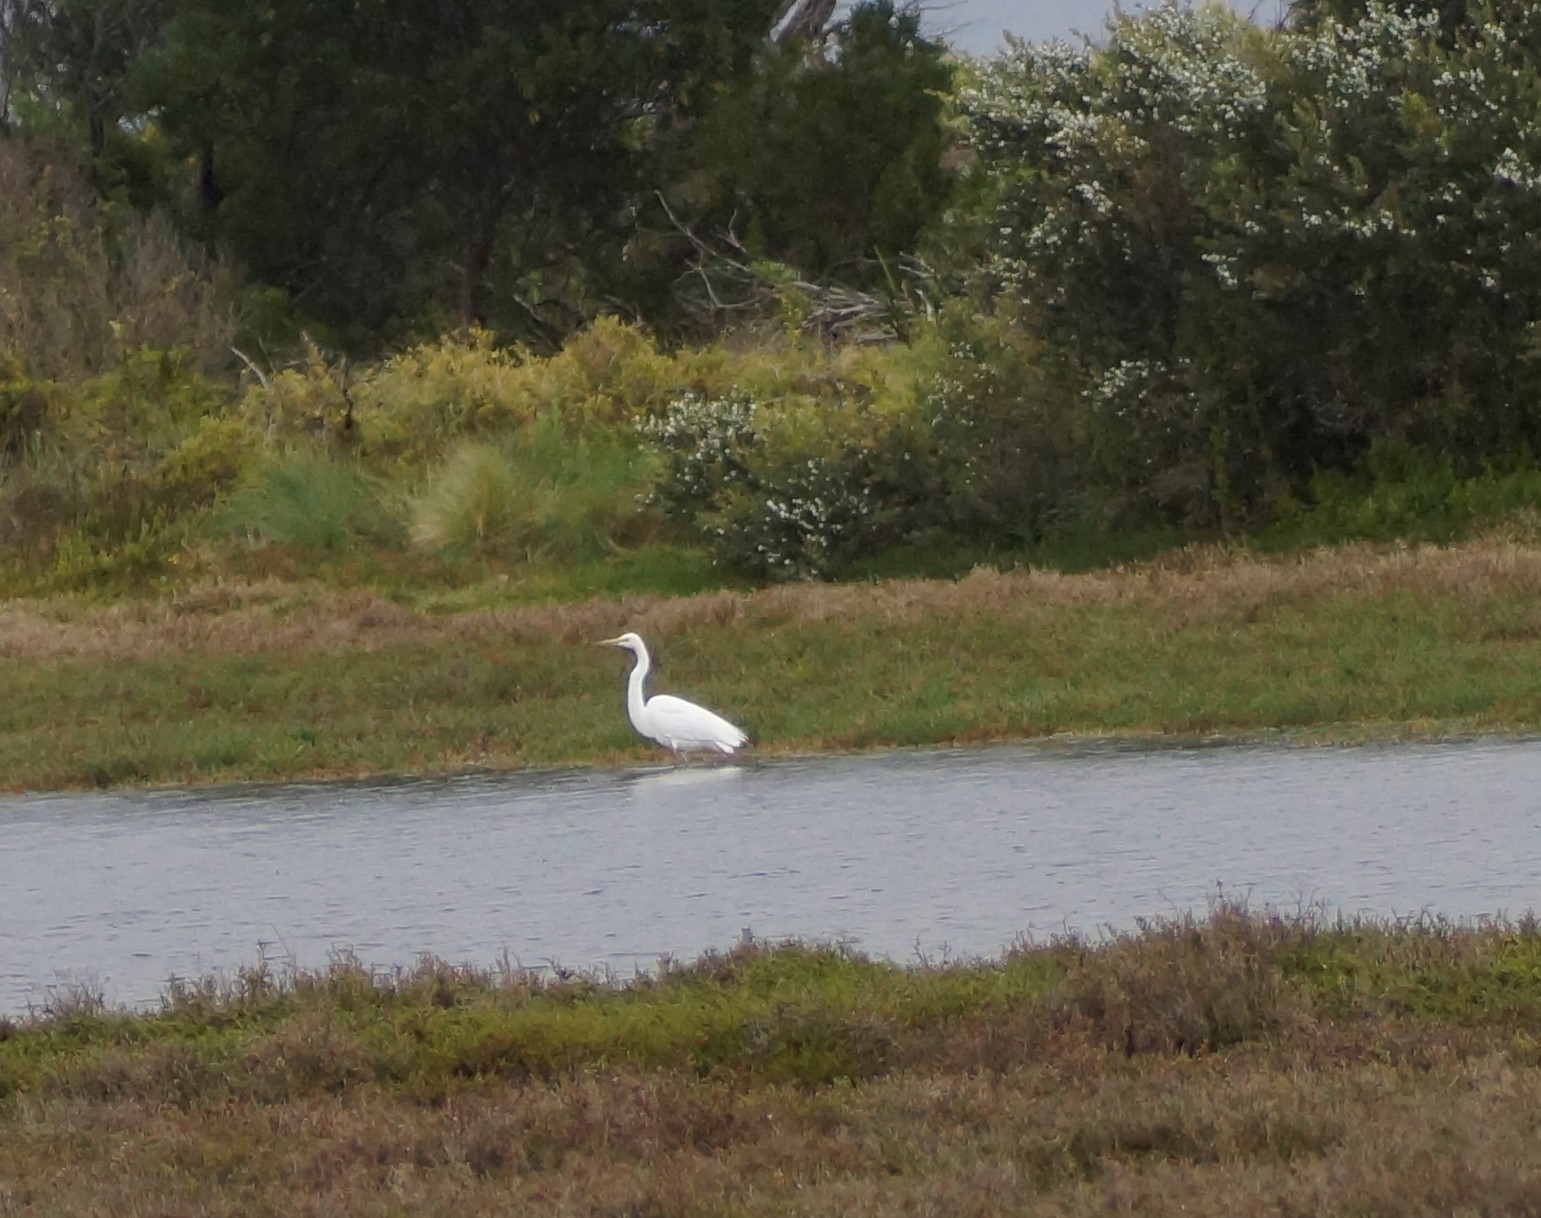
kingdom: Animalia
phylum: Chordata
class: Aves
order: Pelecaniformes
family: Ardeidae
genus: Ardea
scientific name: Ardea alba
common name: Great egret
